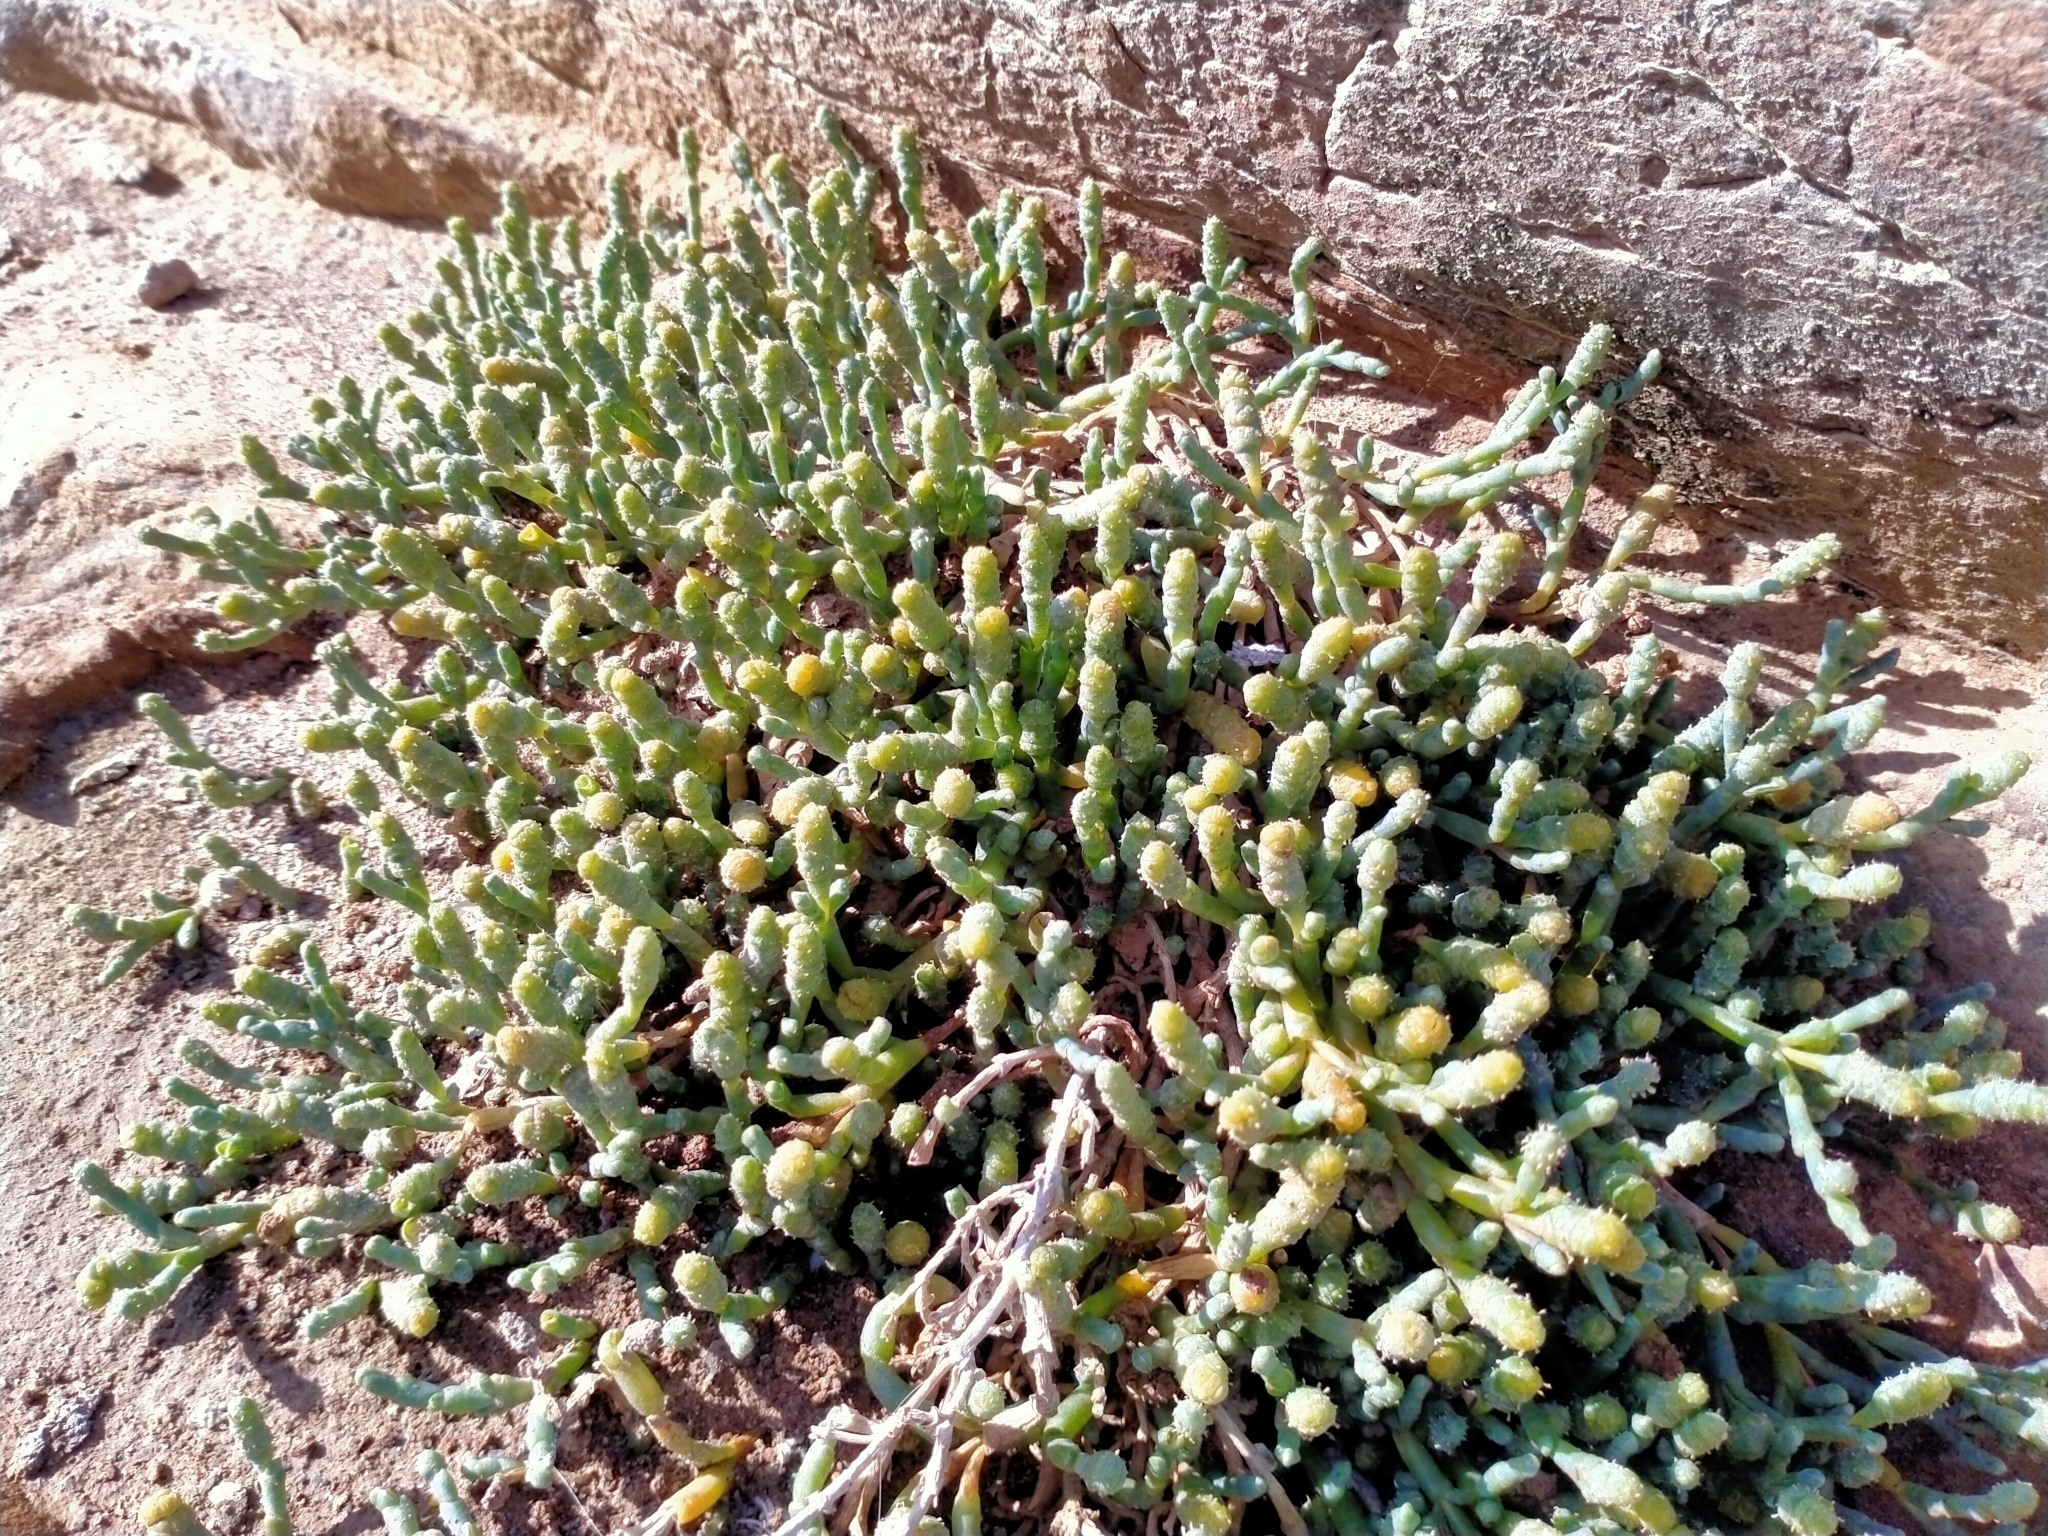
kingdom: Plantae
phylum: Tracheophyta
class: Magnoliopsida
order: Caryophyllales
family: Amaranthaceae
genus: Salicornia
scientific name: Salicornia quinqueflora
